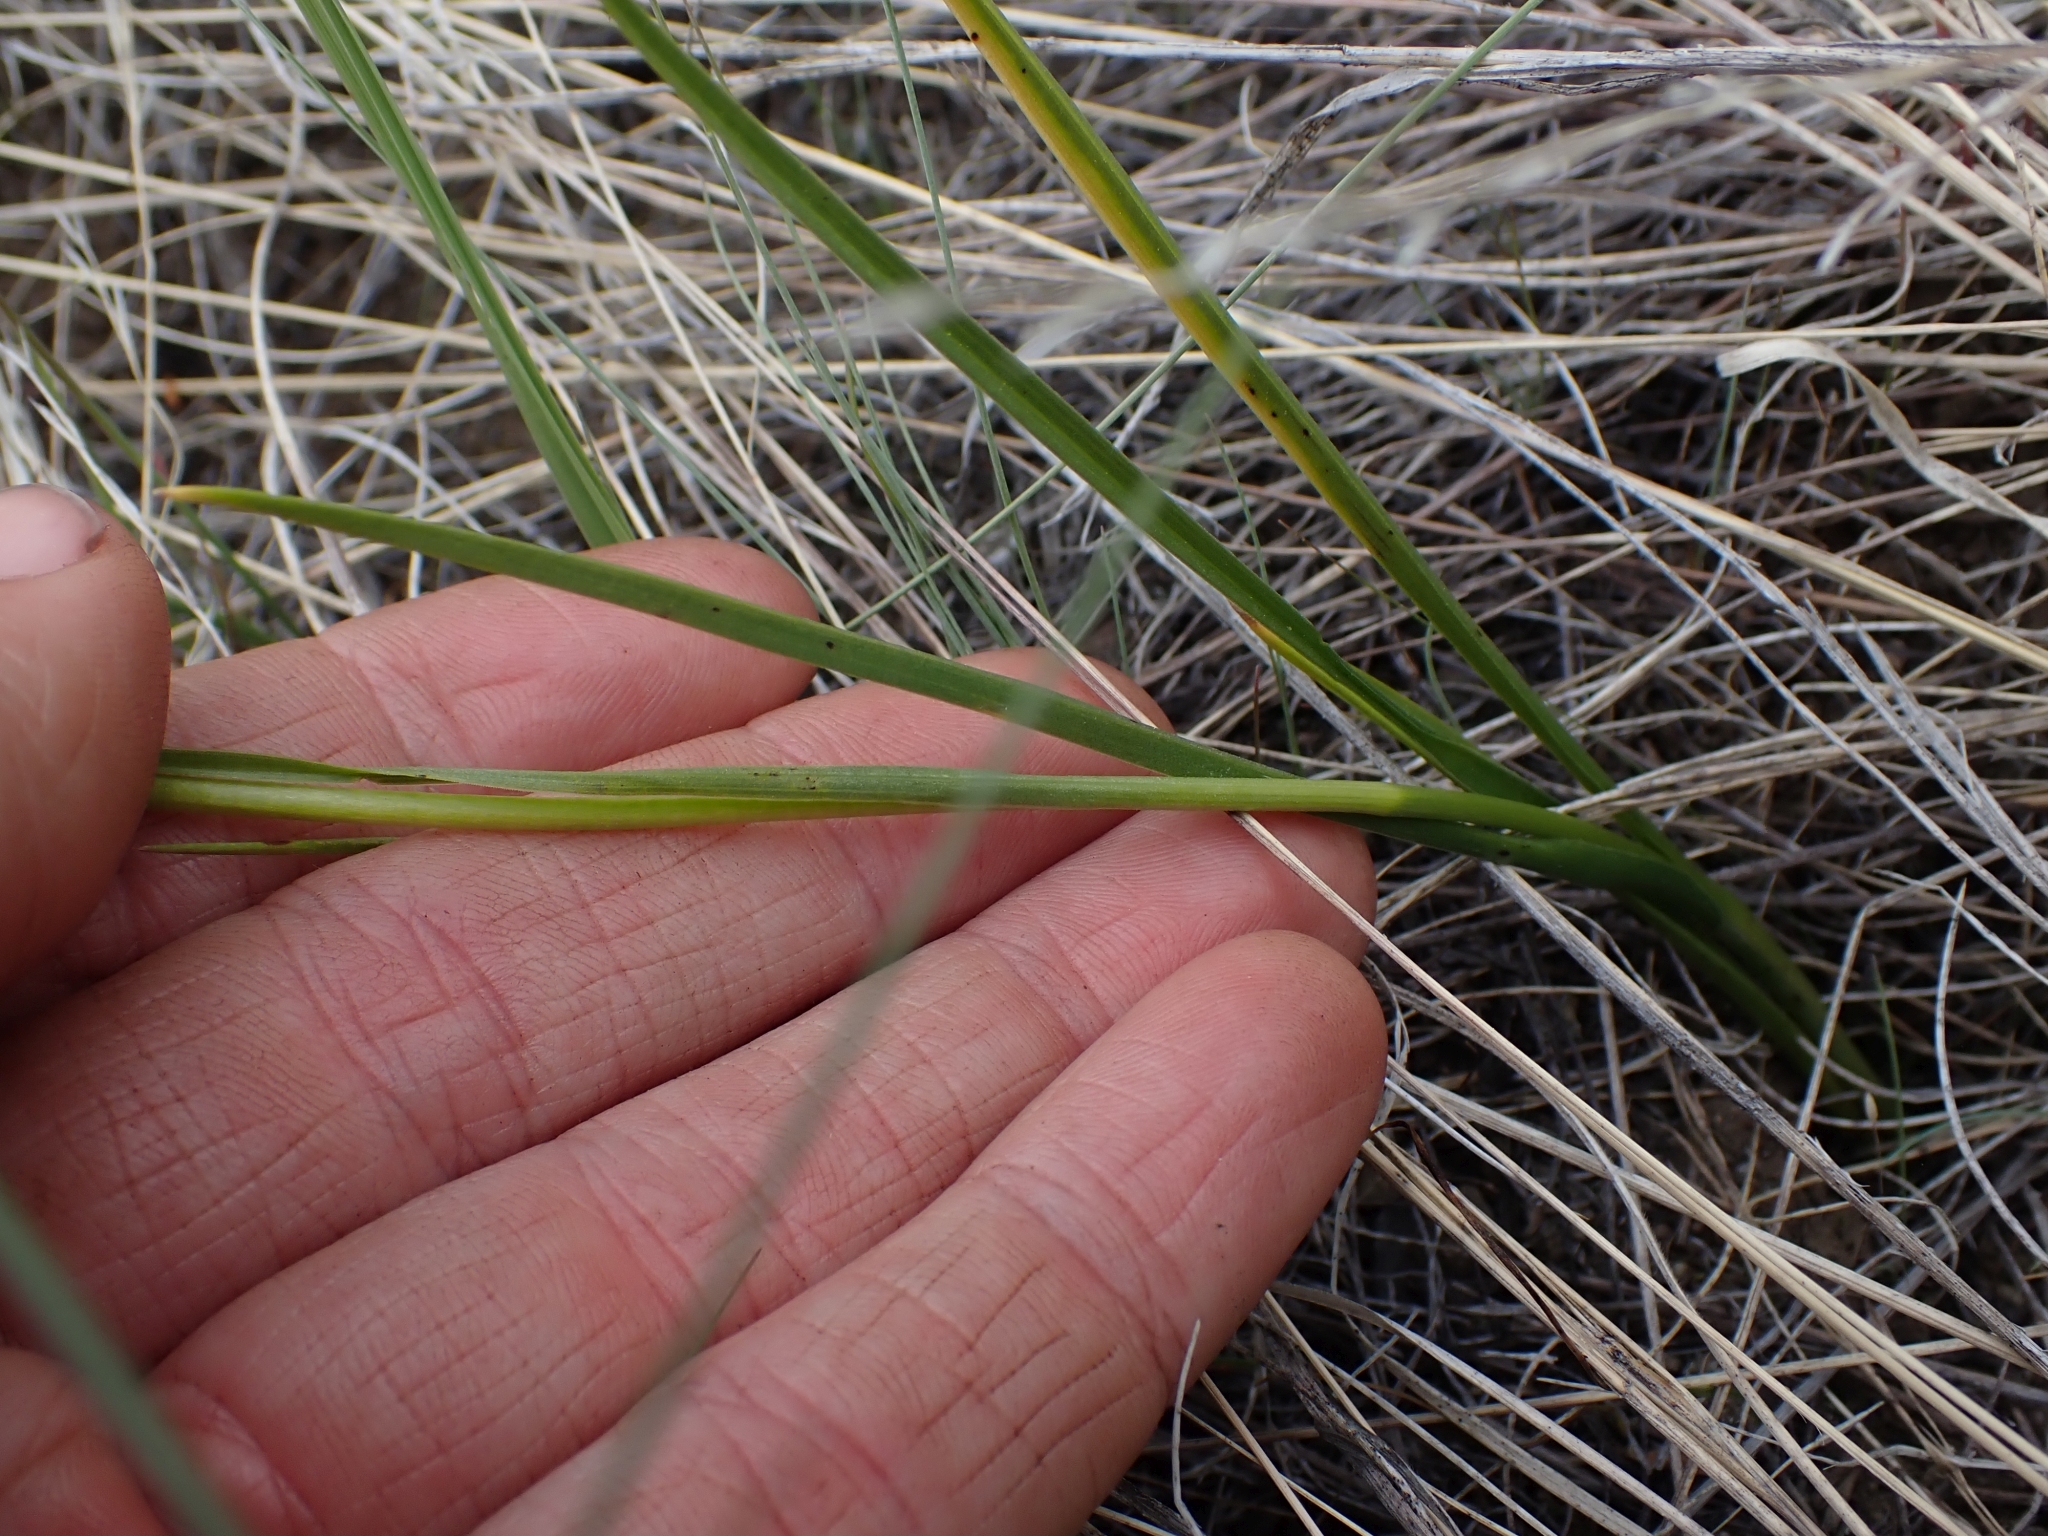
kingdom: Plantae
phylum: Tracheophyta
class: Liliopsida
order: Liliales
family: Melanthiaceae
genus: Toxicoscordion
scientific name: Toxicoscordion venenosum
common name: Meadow death camas
